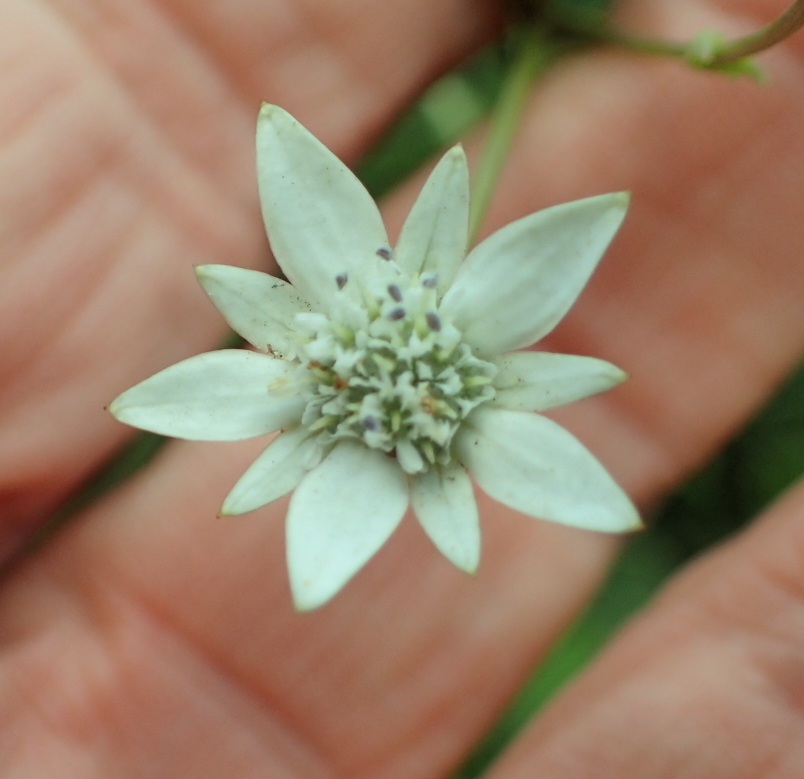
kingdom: Plantae
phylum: Tracheophyta
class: Magnoliopsida
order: Apiales
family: Apiaceae
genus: Alepidea
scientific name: Alepidea peduncularis
